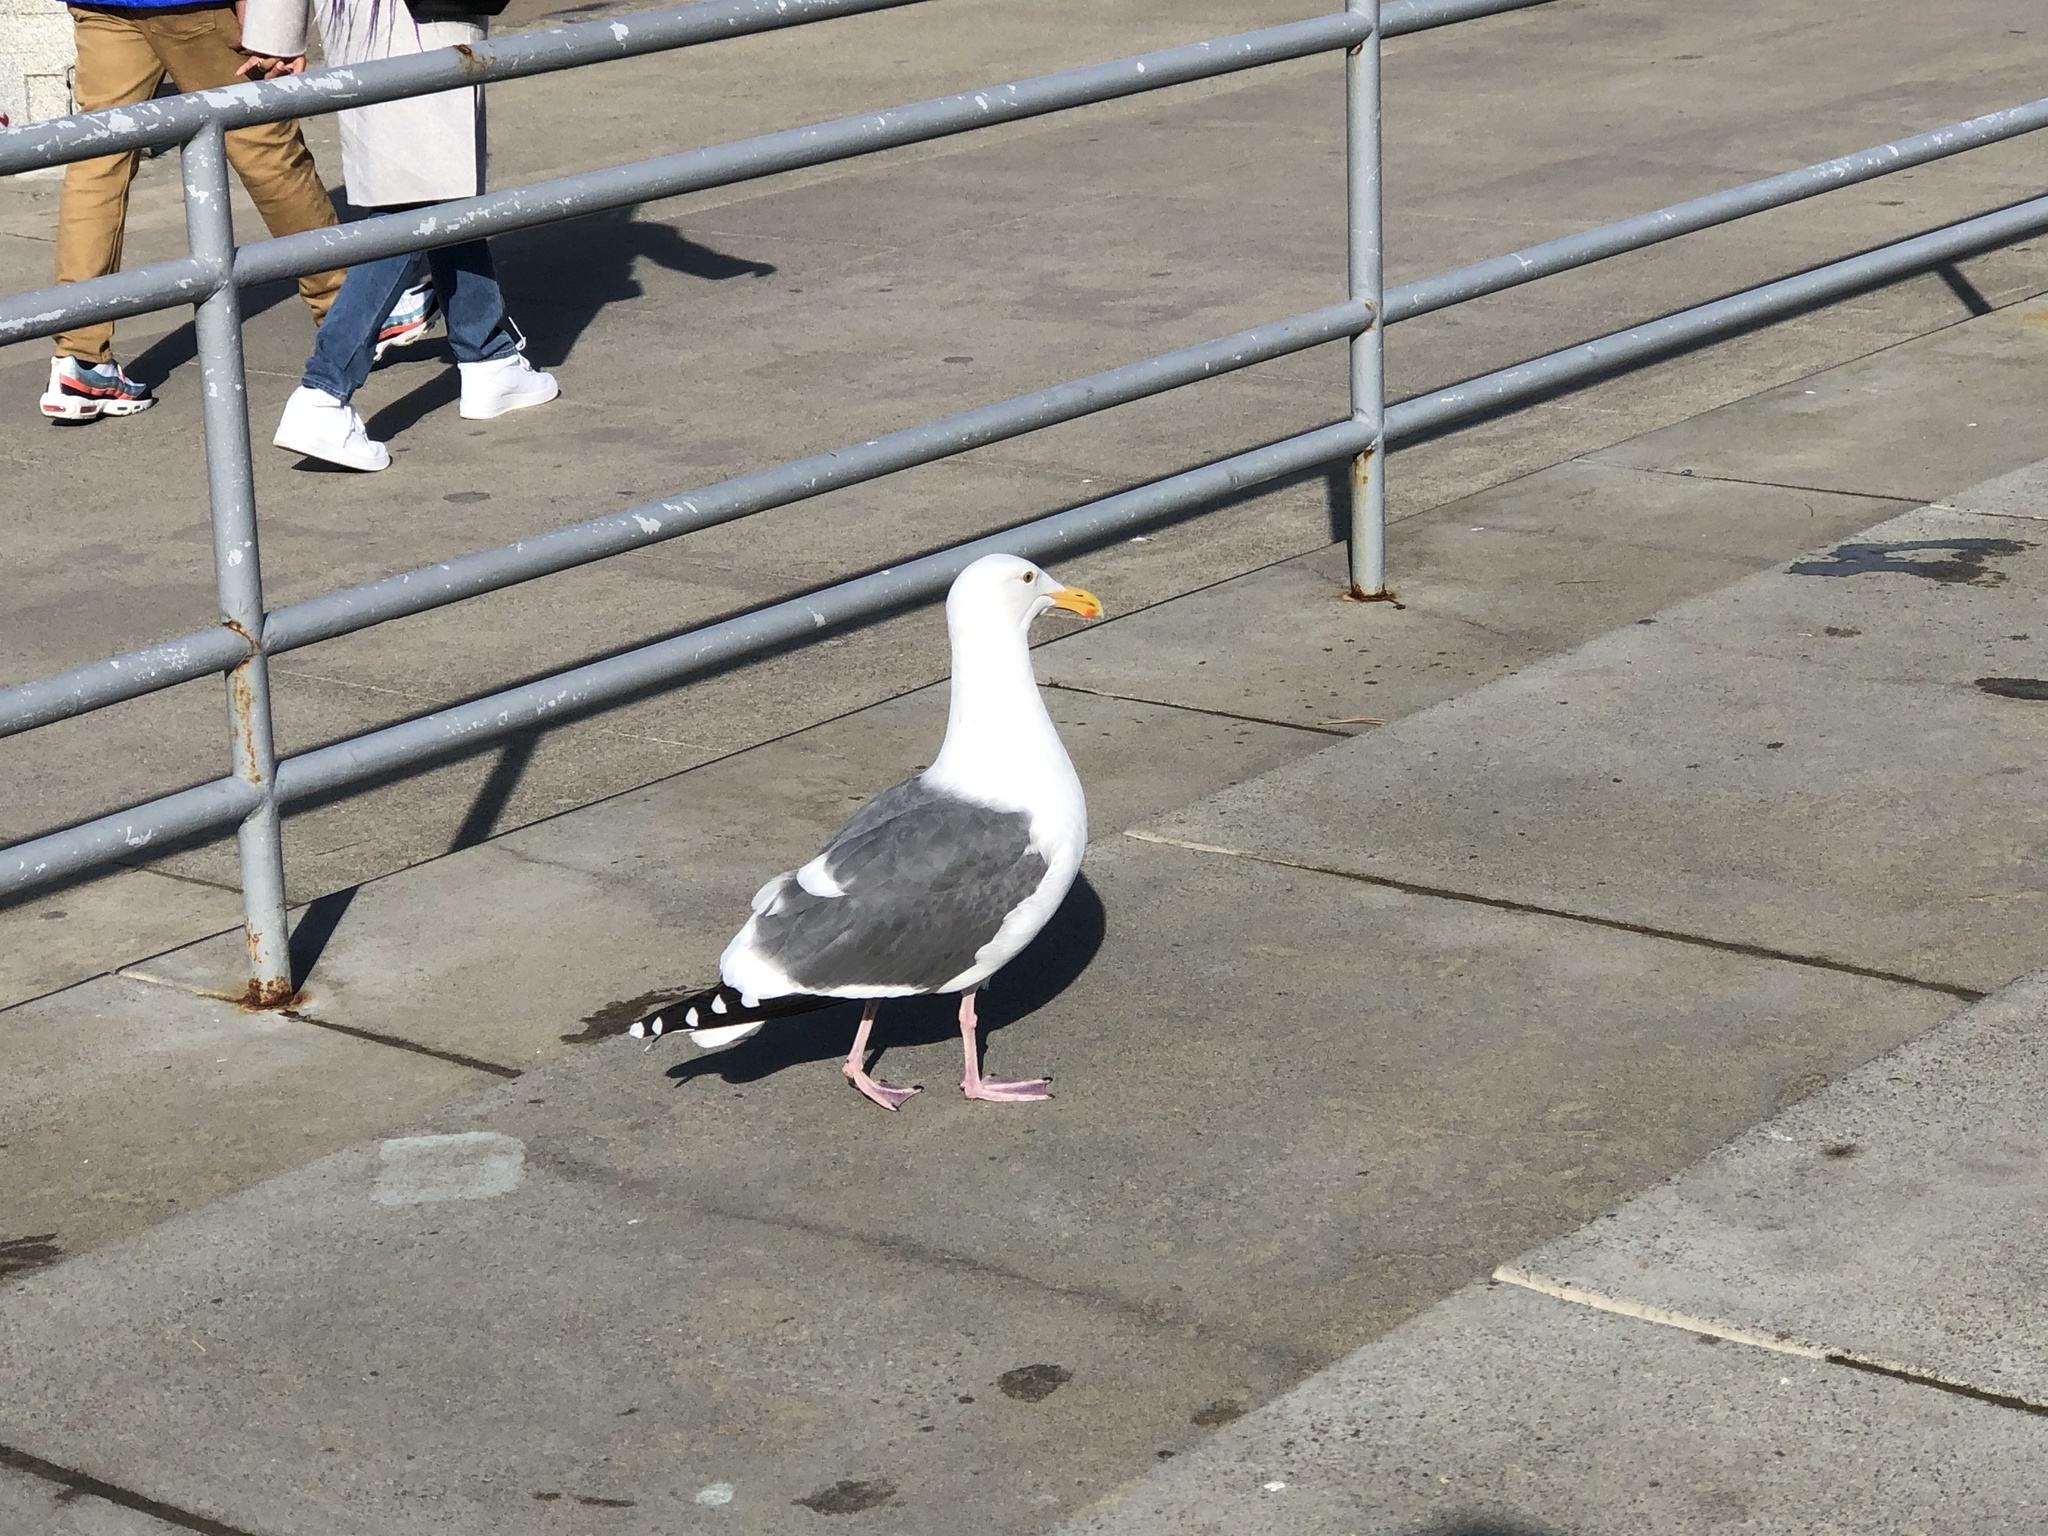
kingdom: Animalia
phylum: Chordata
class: Aves
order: Charadriiformes
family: Laridae
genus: Larus
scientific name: Larus occidentalis
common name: Western gull
